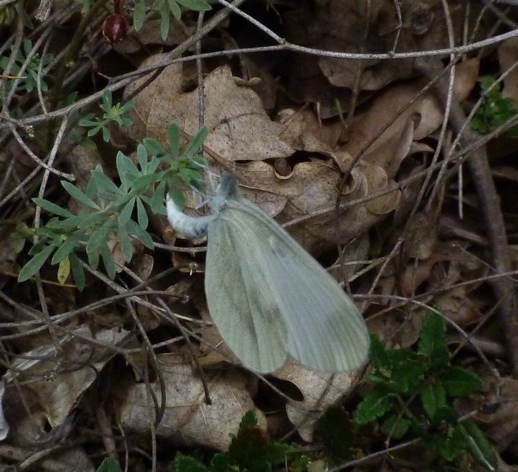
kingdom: Animalia
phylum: Arthropoda
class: Insecta
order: Lepidoptera
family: Pieridae
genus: Leptidea
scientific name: Leptidea sinapis
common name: Wood white
